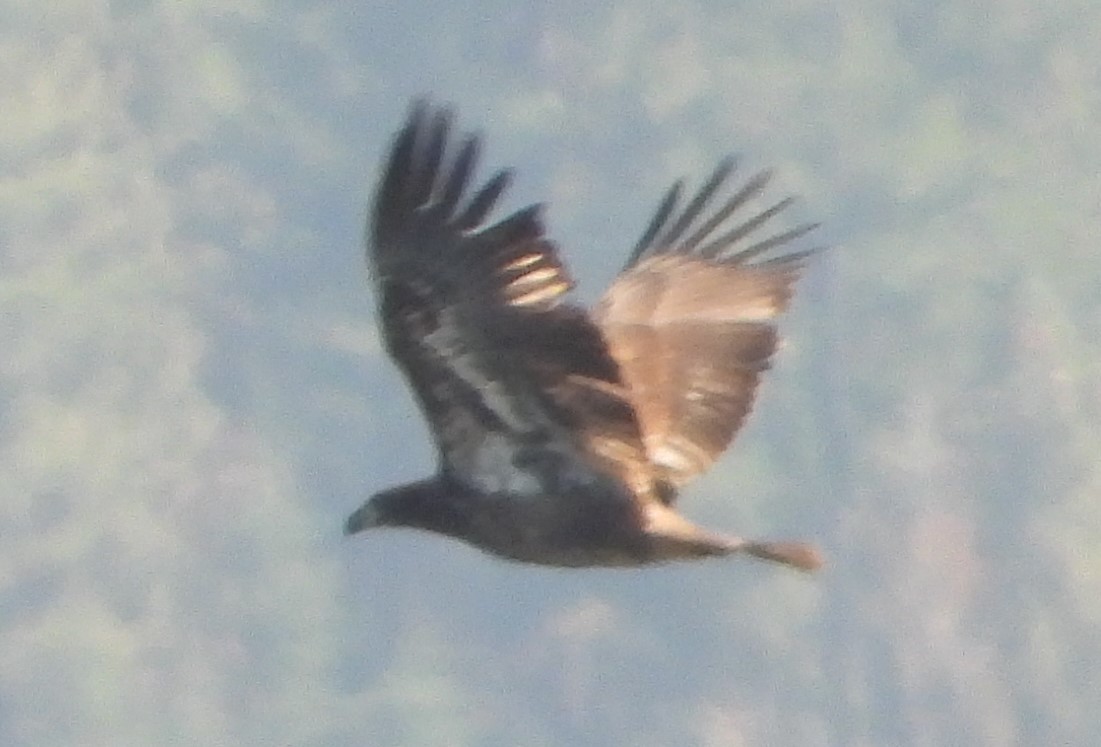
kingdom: Animalia
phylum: Chordata
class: Aves
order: Accipitriformes
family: Accipitridae
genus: Haliaeetus
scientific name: Haliaeetus leucocephalus
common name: Bald eagle
